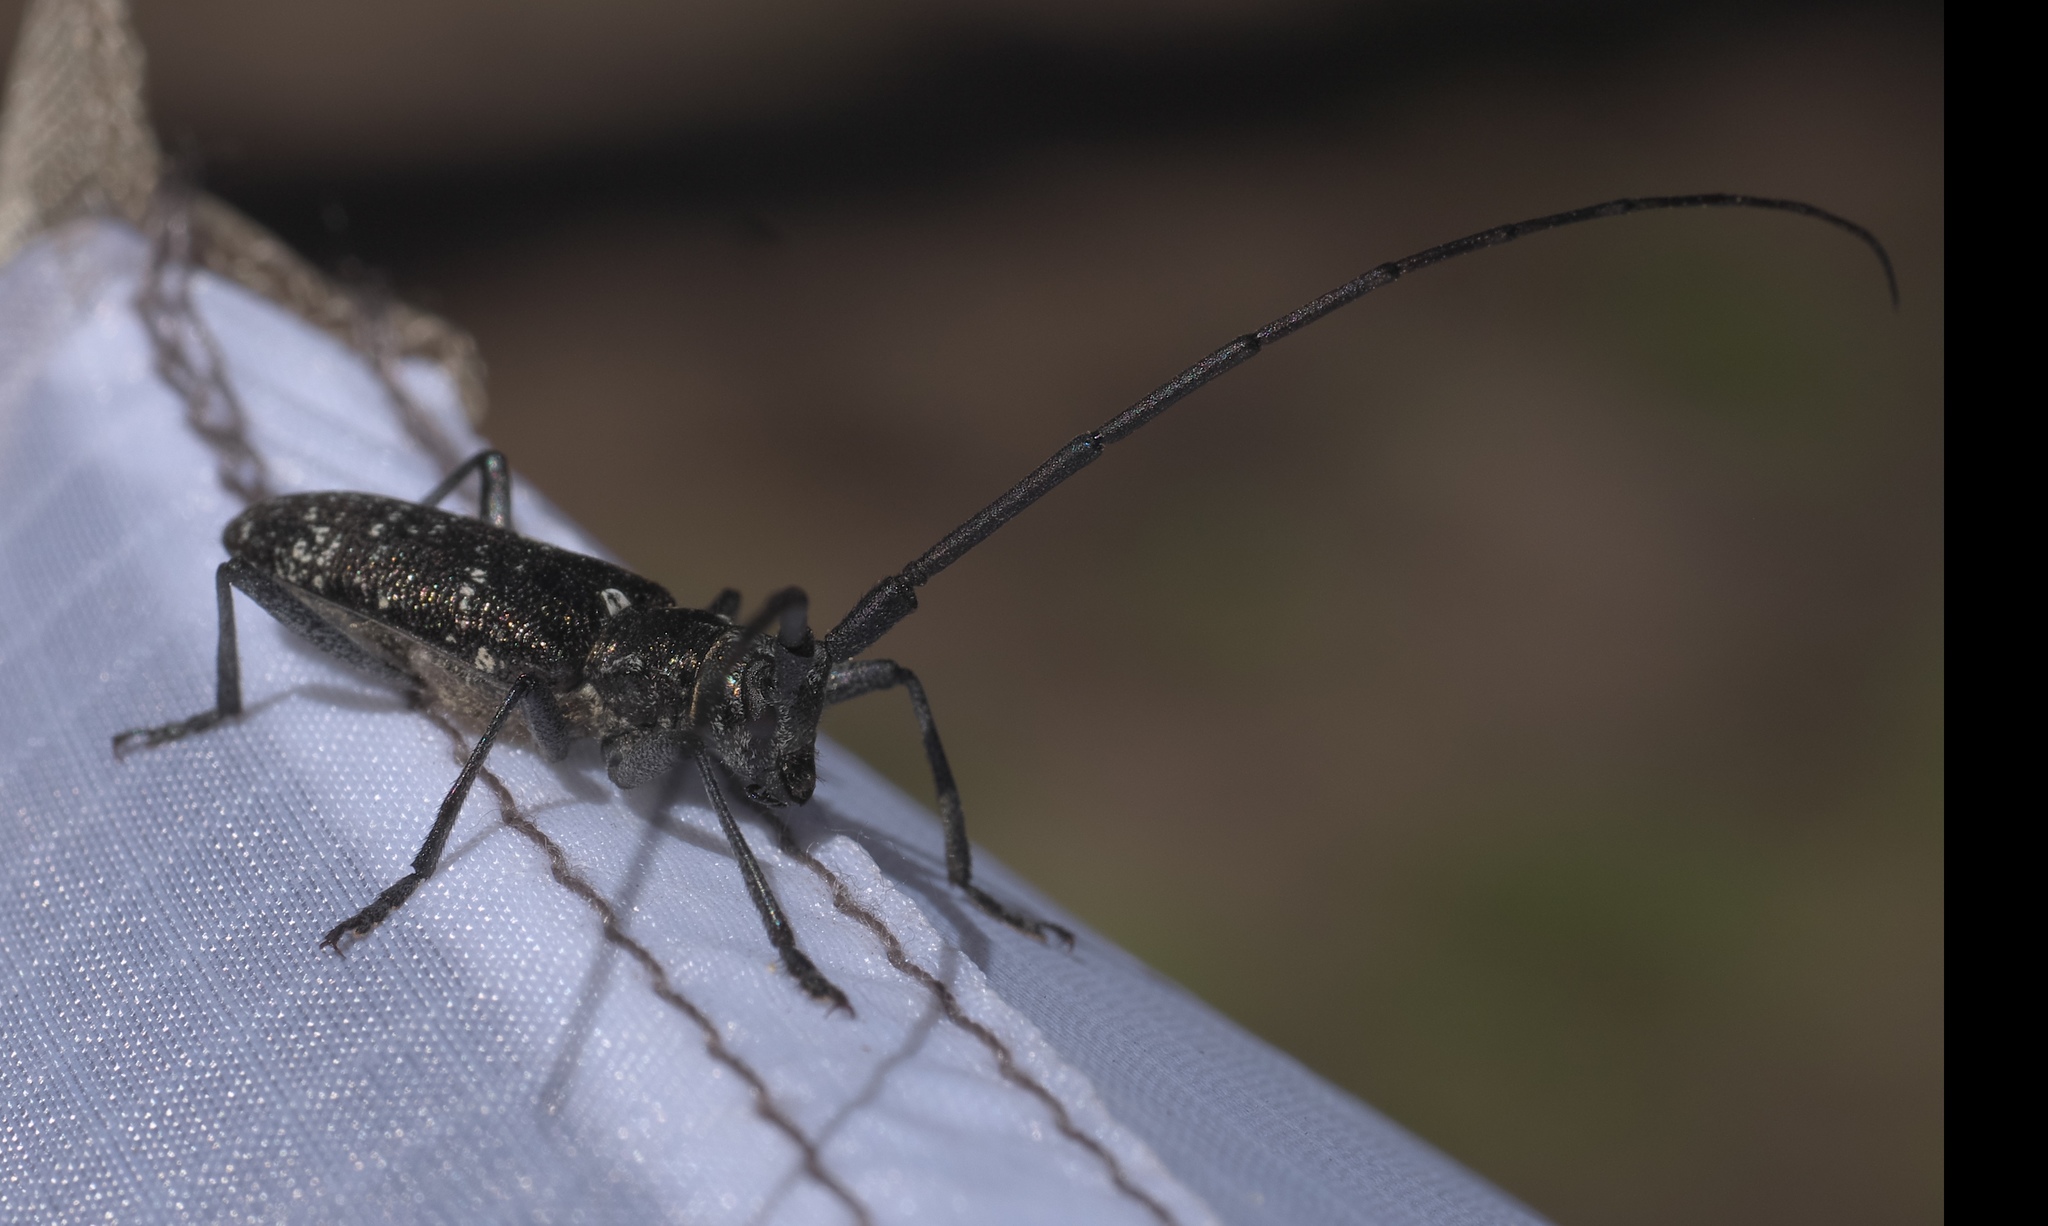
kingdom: Animalia
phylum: Arthropoda
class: Insecta
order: Coleoptera
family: Cerambycidae
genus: Monochamus
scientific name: Monochamus scutellatus
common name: White-spotted sawyer beetle
